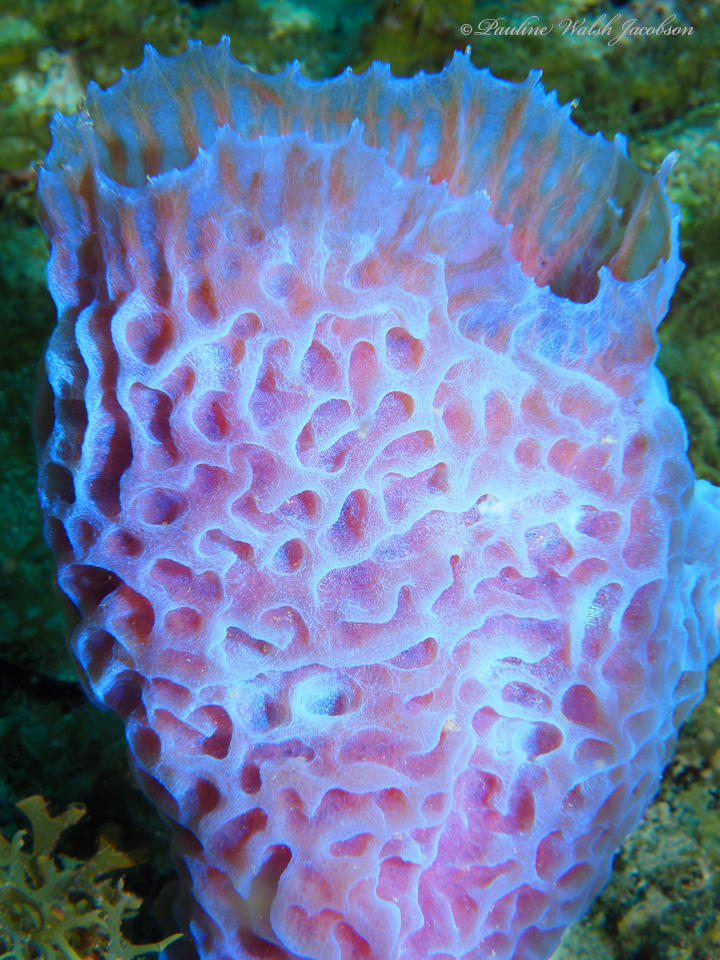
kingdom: Animalia
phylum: Porifera
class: Demospongiae
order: Haplosclerida
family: Callyspongiidae
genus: Callyspongia
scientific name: Callyspongia plicifera
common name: Azure vase sponge
